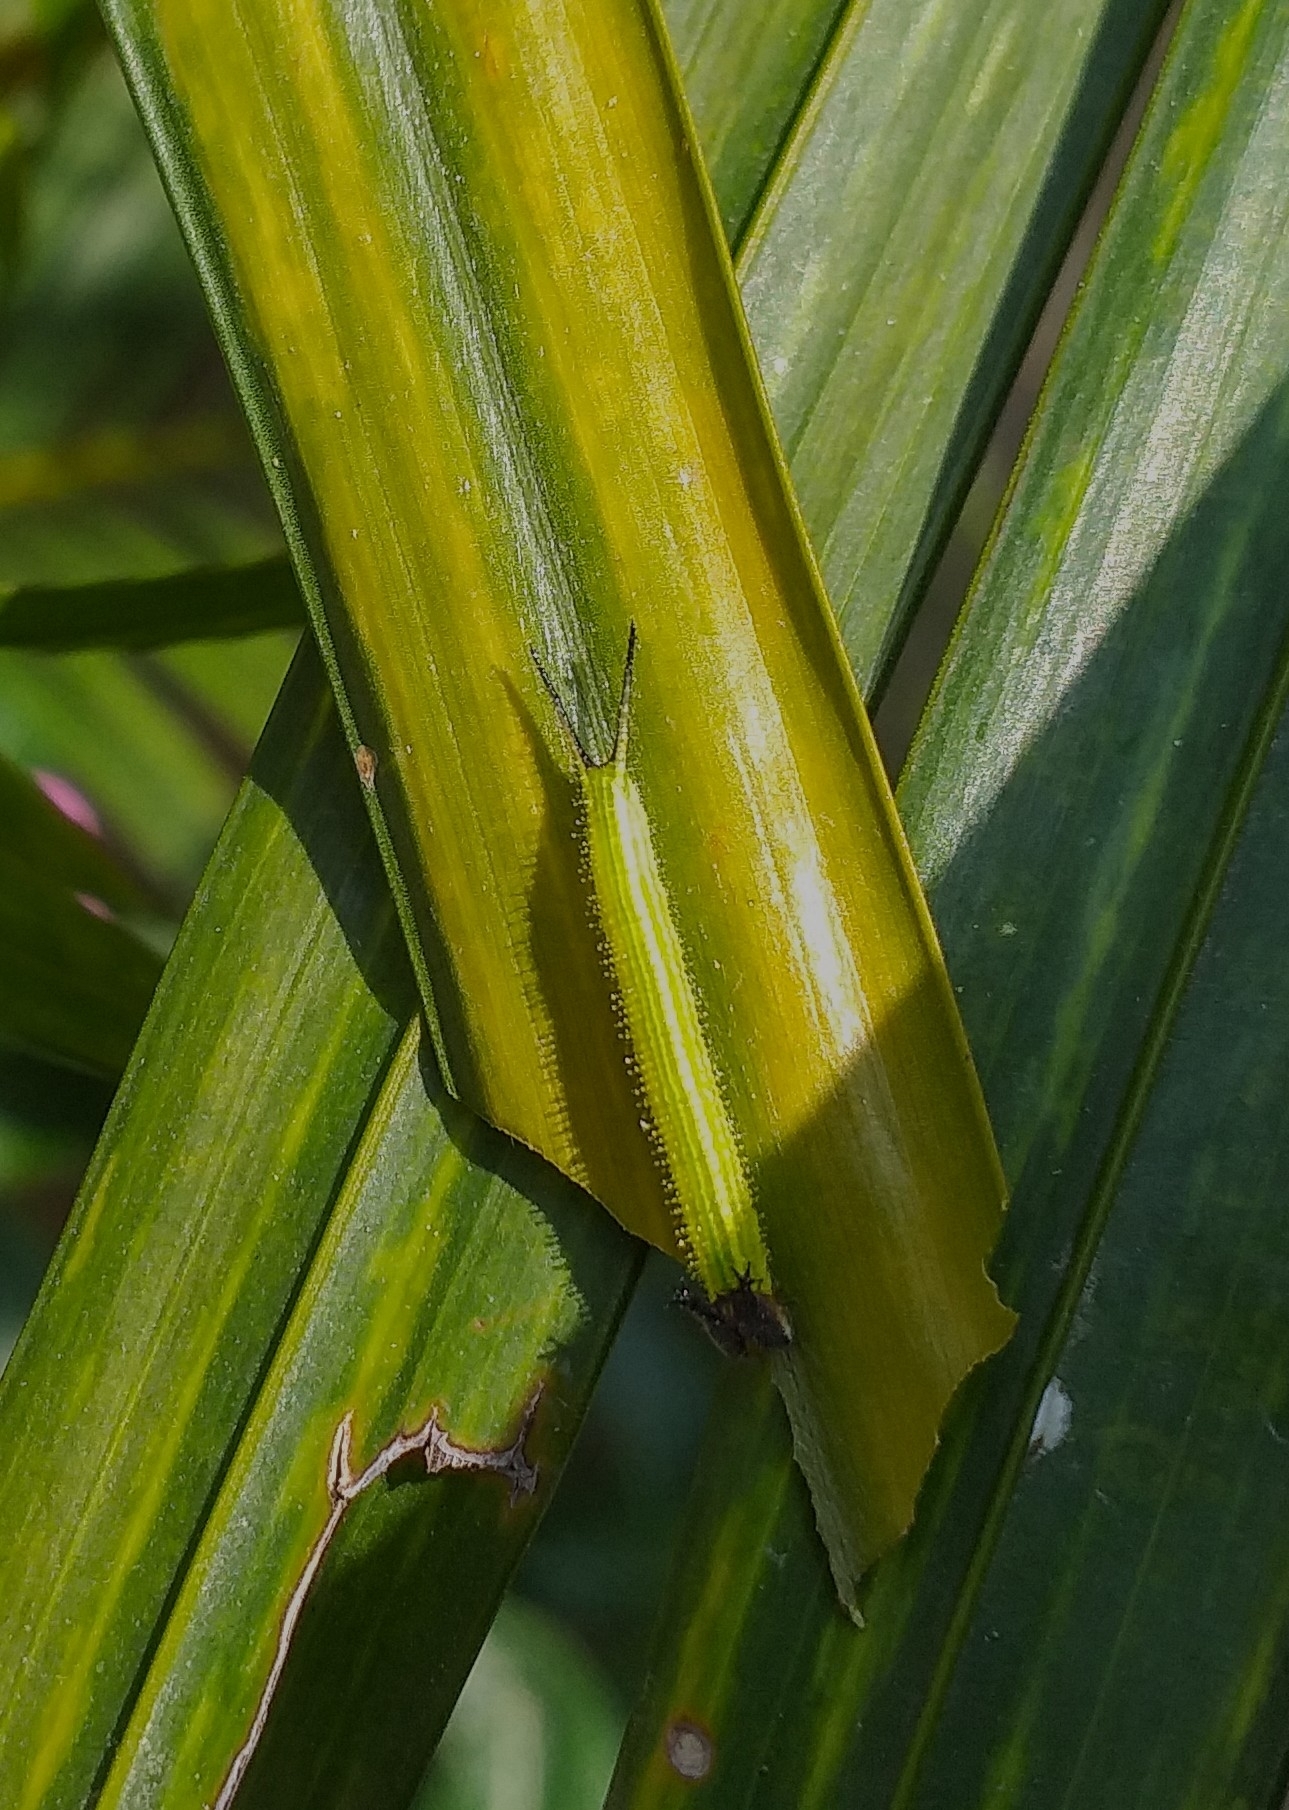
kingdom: Animalia
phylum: Arthropoda
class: Insecta
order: Lepidoptera
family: Nymphalidae
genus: Elymnias
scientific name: Elymnias caudata
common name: Tailed palmfly
